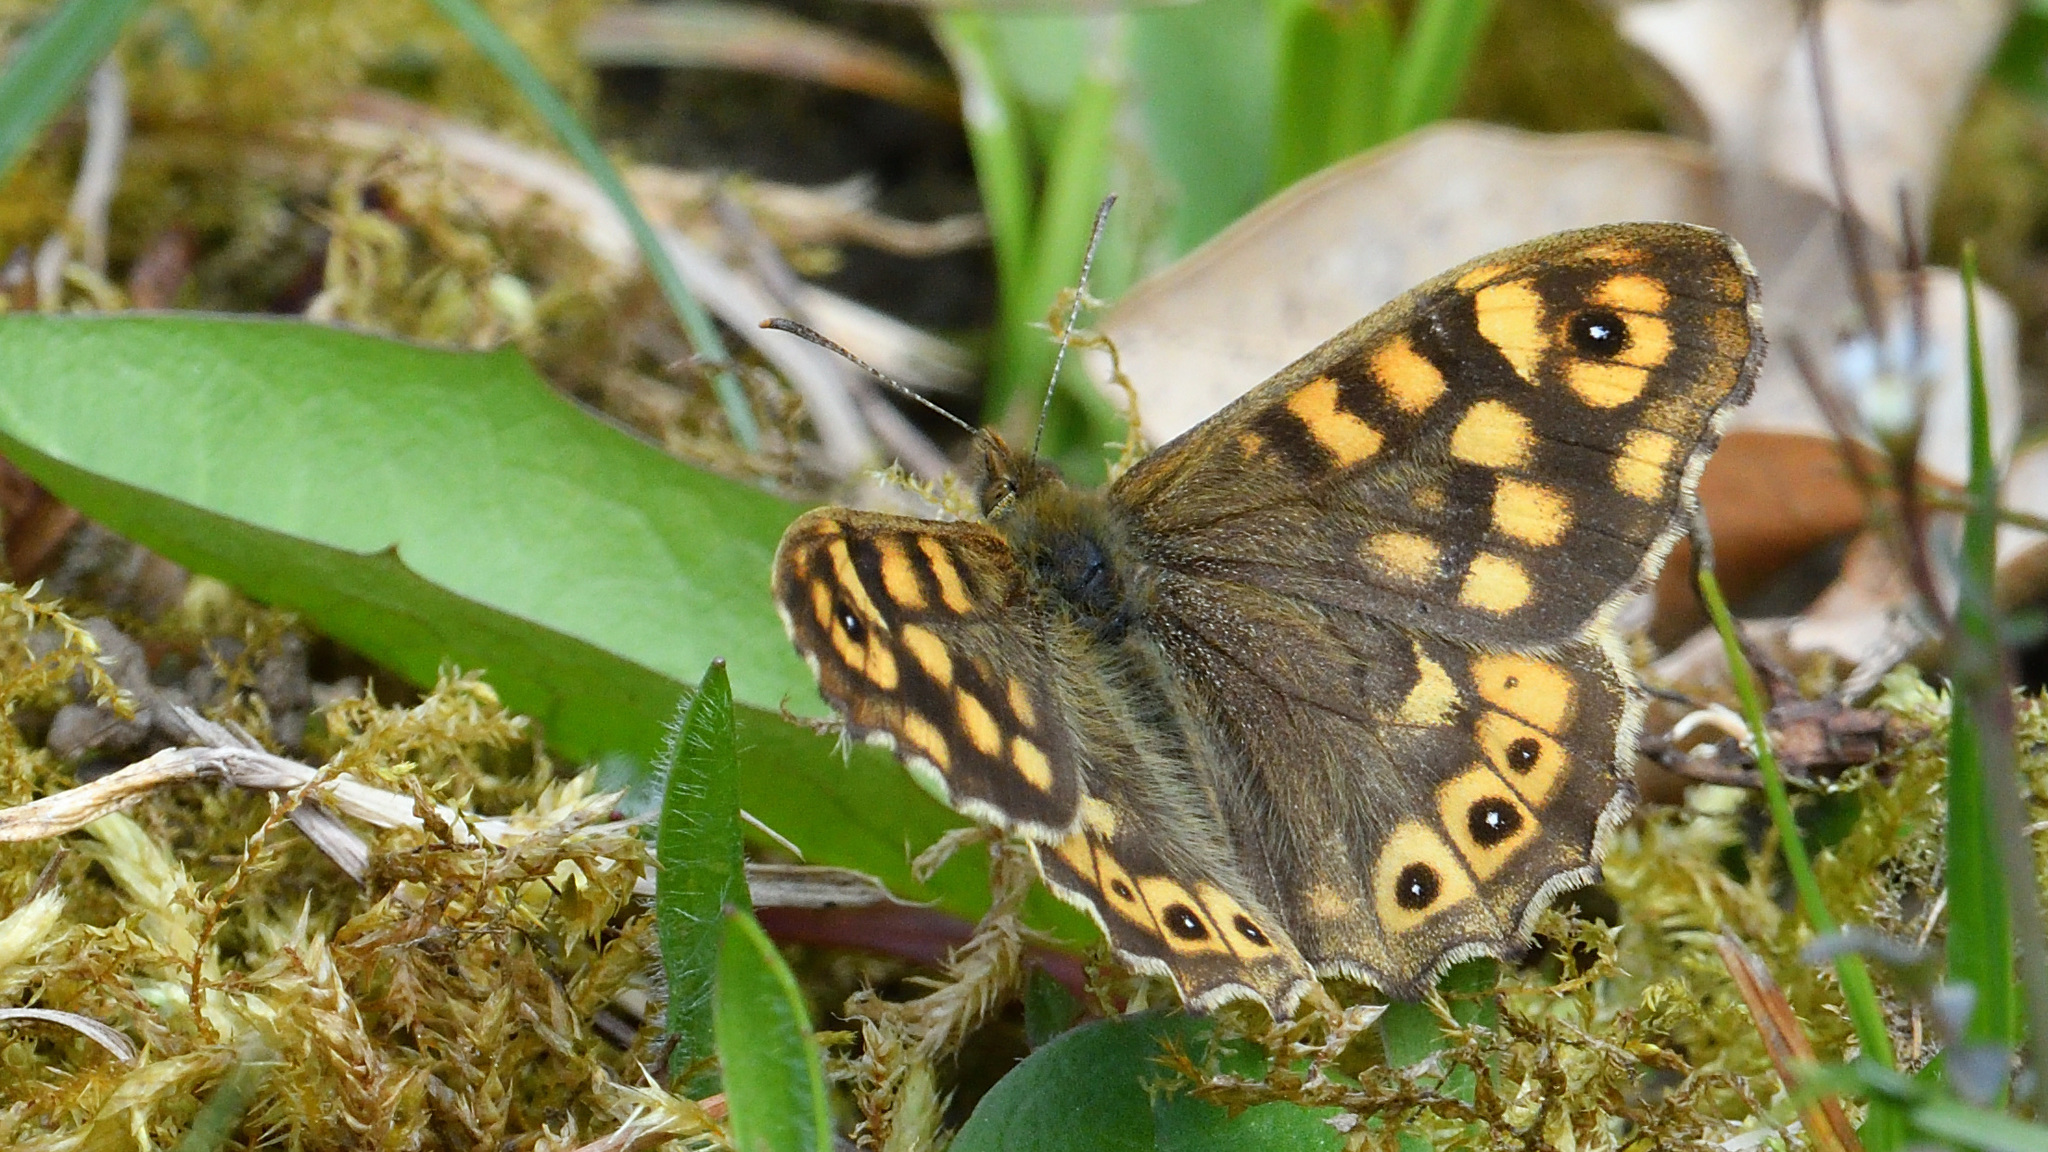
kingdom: Animalia
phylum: Arthropoda
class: Insecta
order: Lepidoptera
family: Nymphalidae
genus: Pararge
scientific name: Pararge aegeria
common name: Speckled wood
